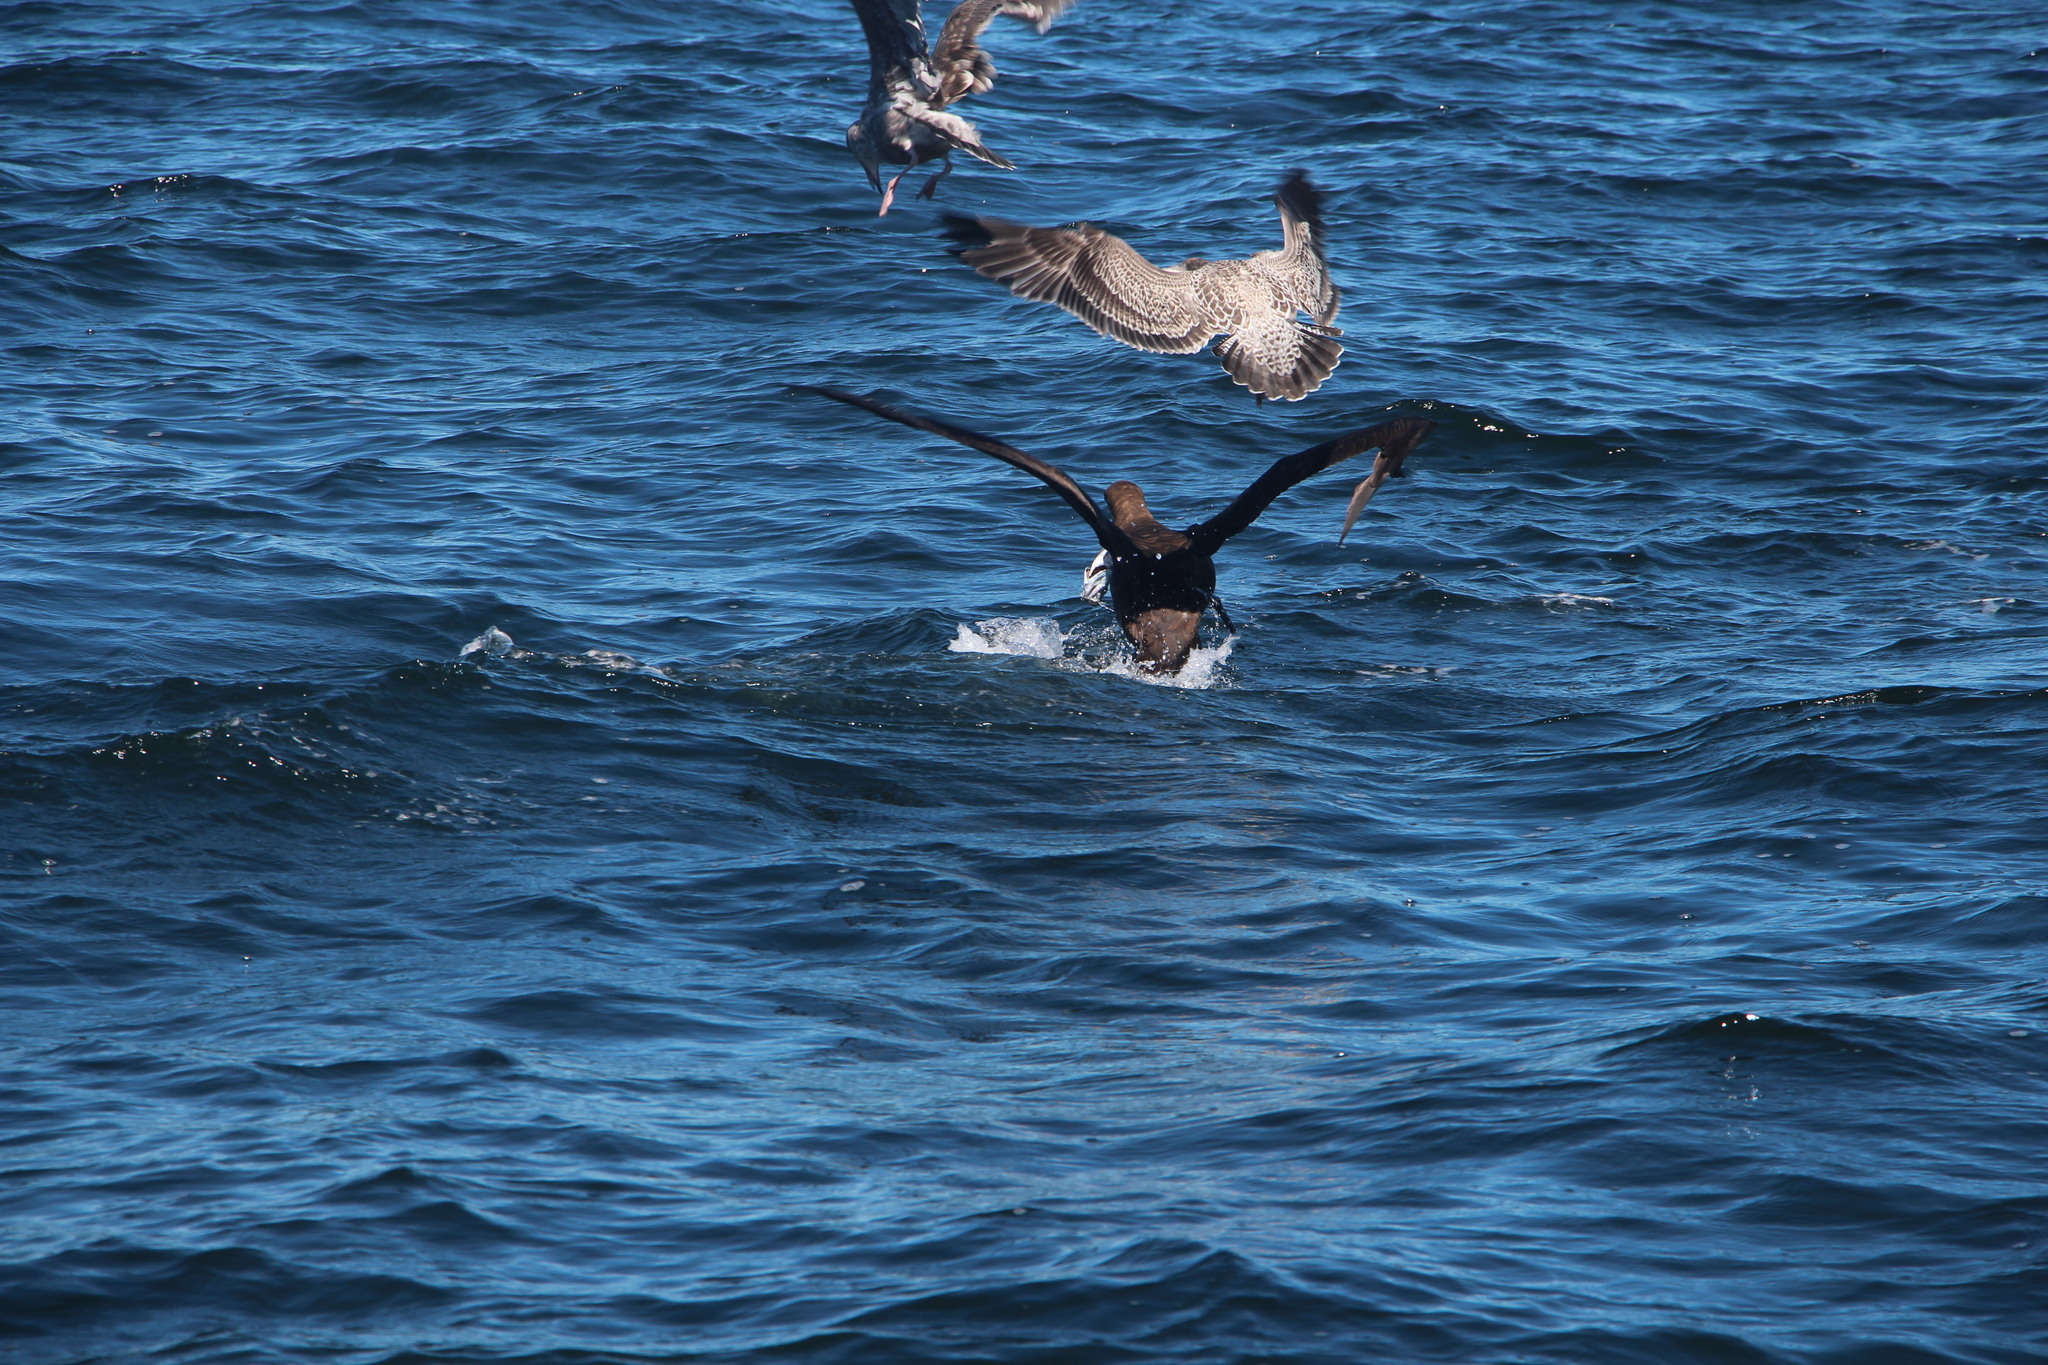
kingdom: Animalia
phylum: Chordata
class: Aves
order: Procellariiformes
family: Diomedeidae
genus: Phoebastria
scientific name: Phoebastria nigripes
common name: Black-footed albatross
